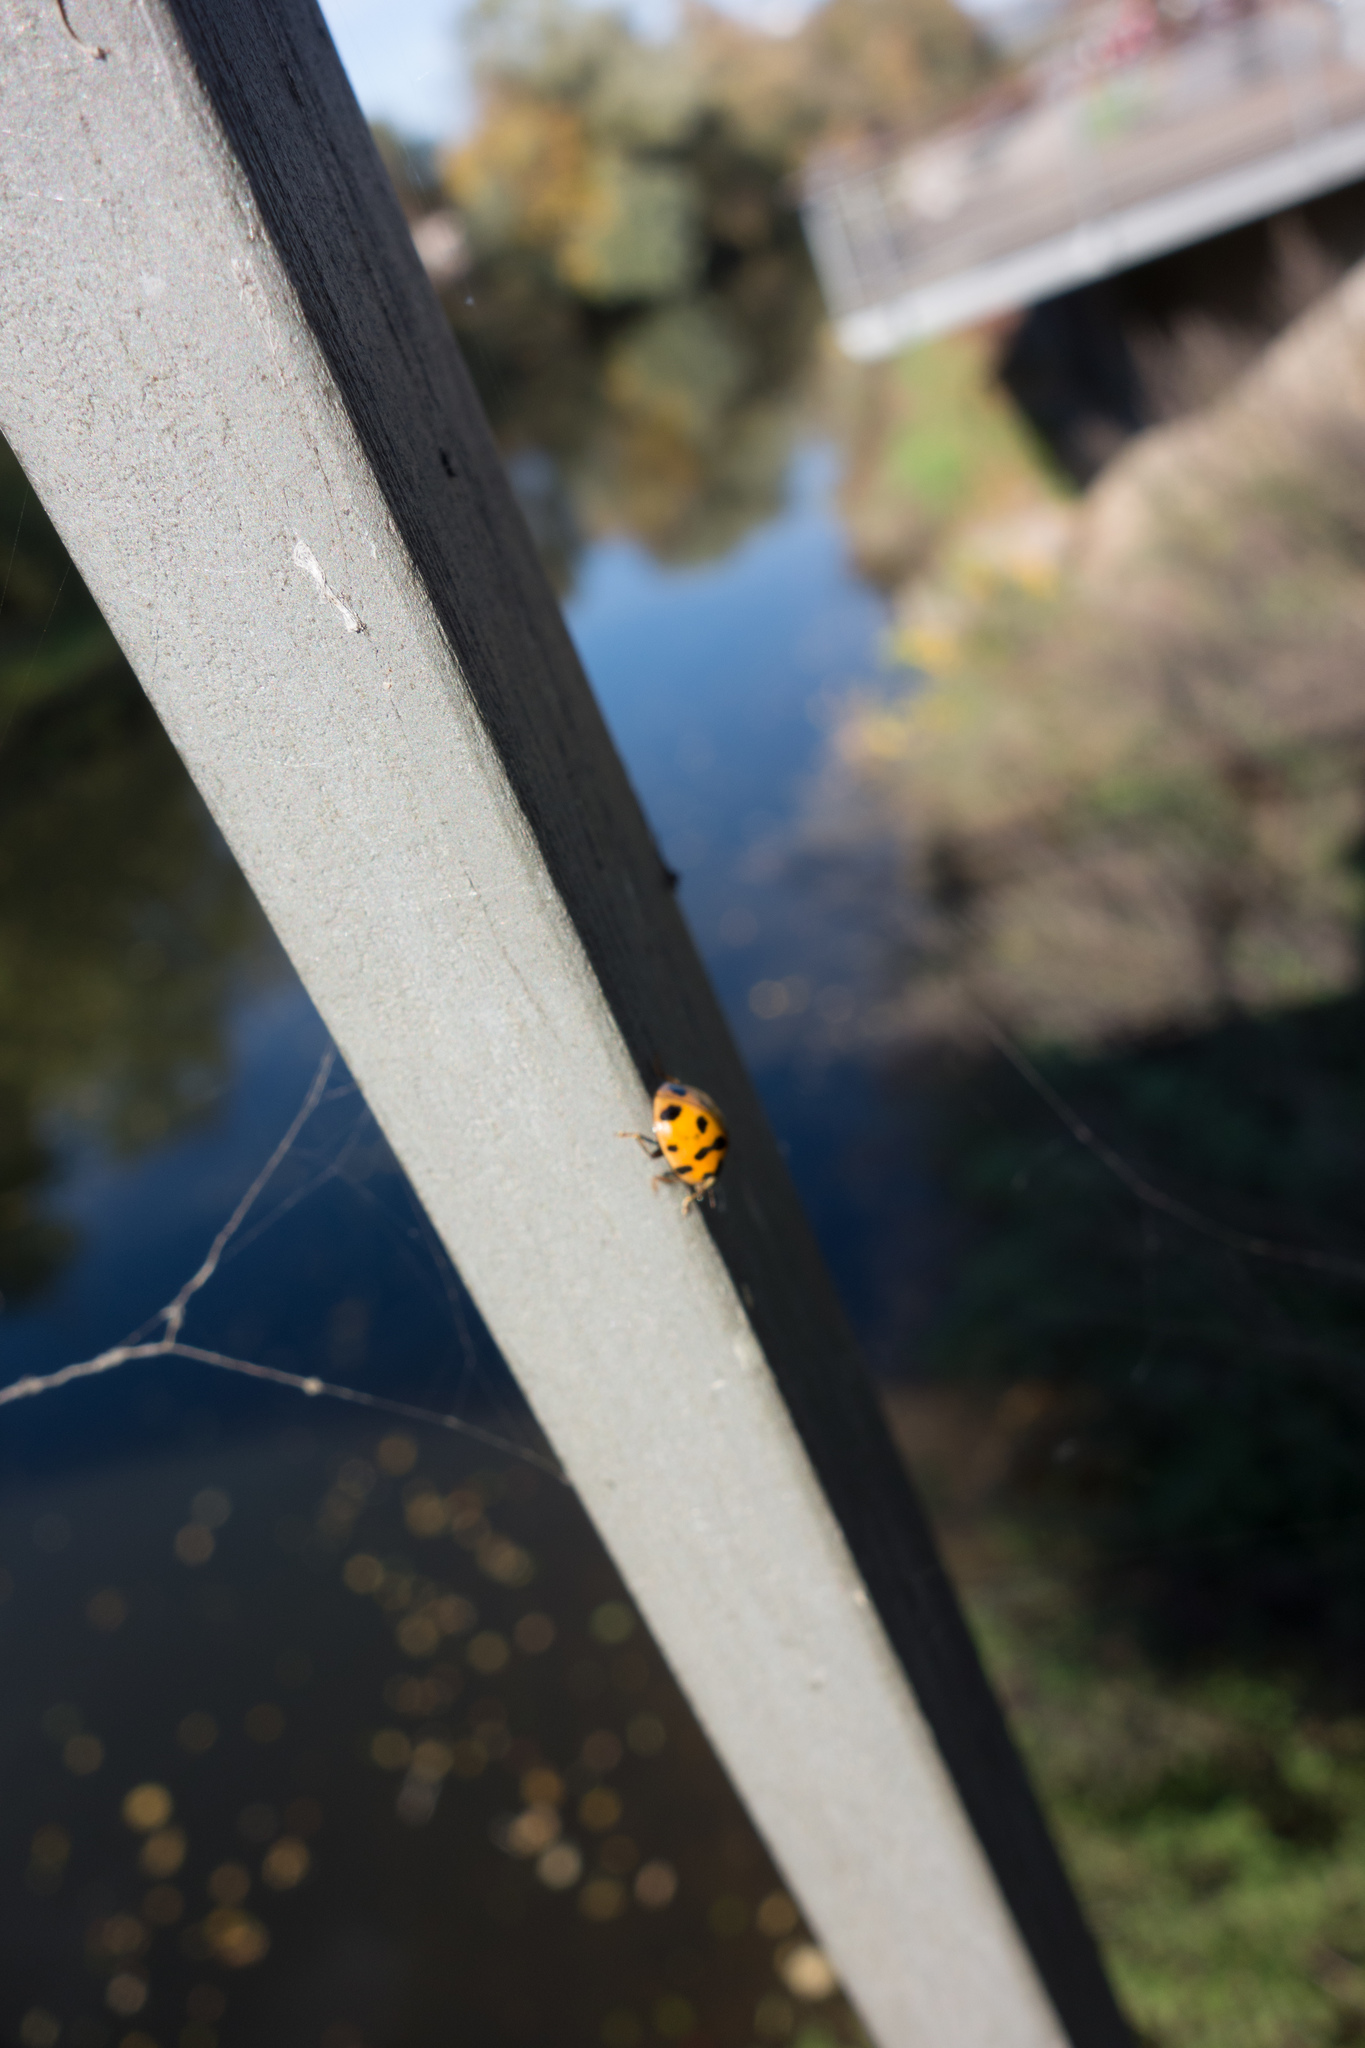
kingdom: Animalia
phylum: Arthropoda
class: Insecta
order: Coleoptera
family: Coccinellidae
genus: Harmonia
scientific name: Harmonia axyridis
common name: Harlequin ladybird
